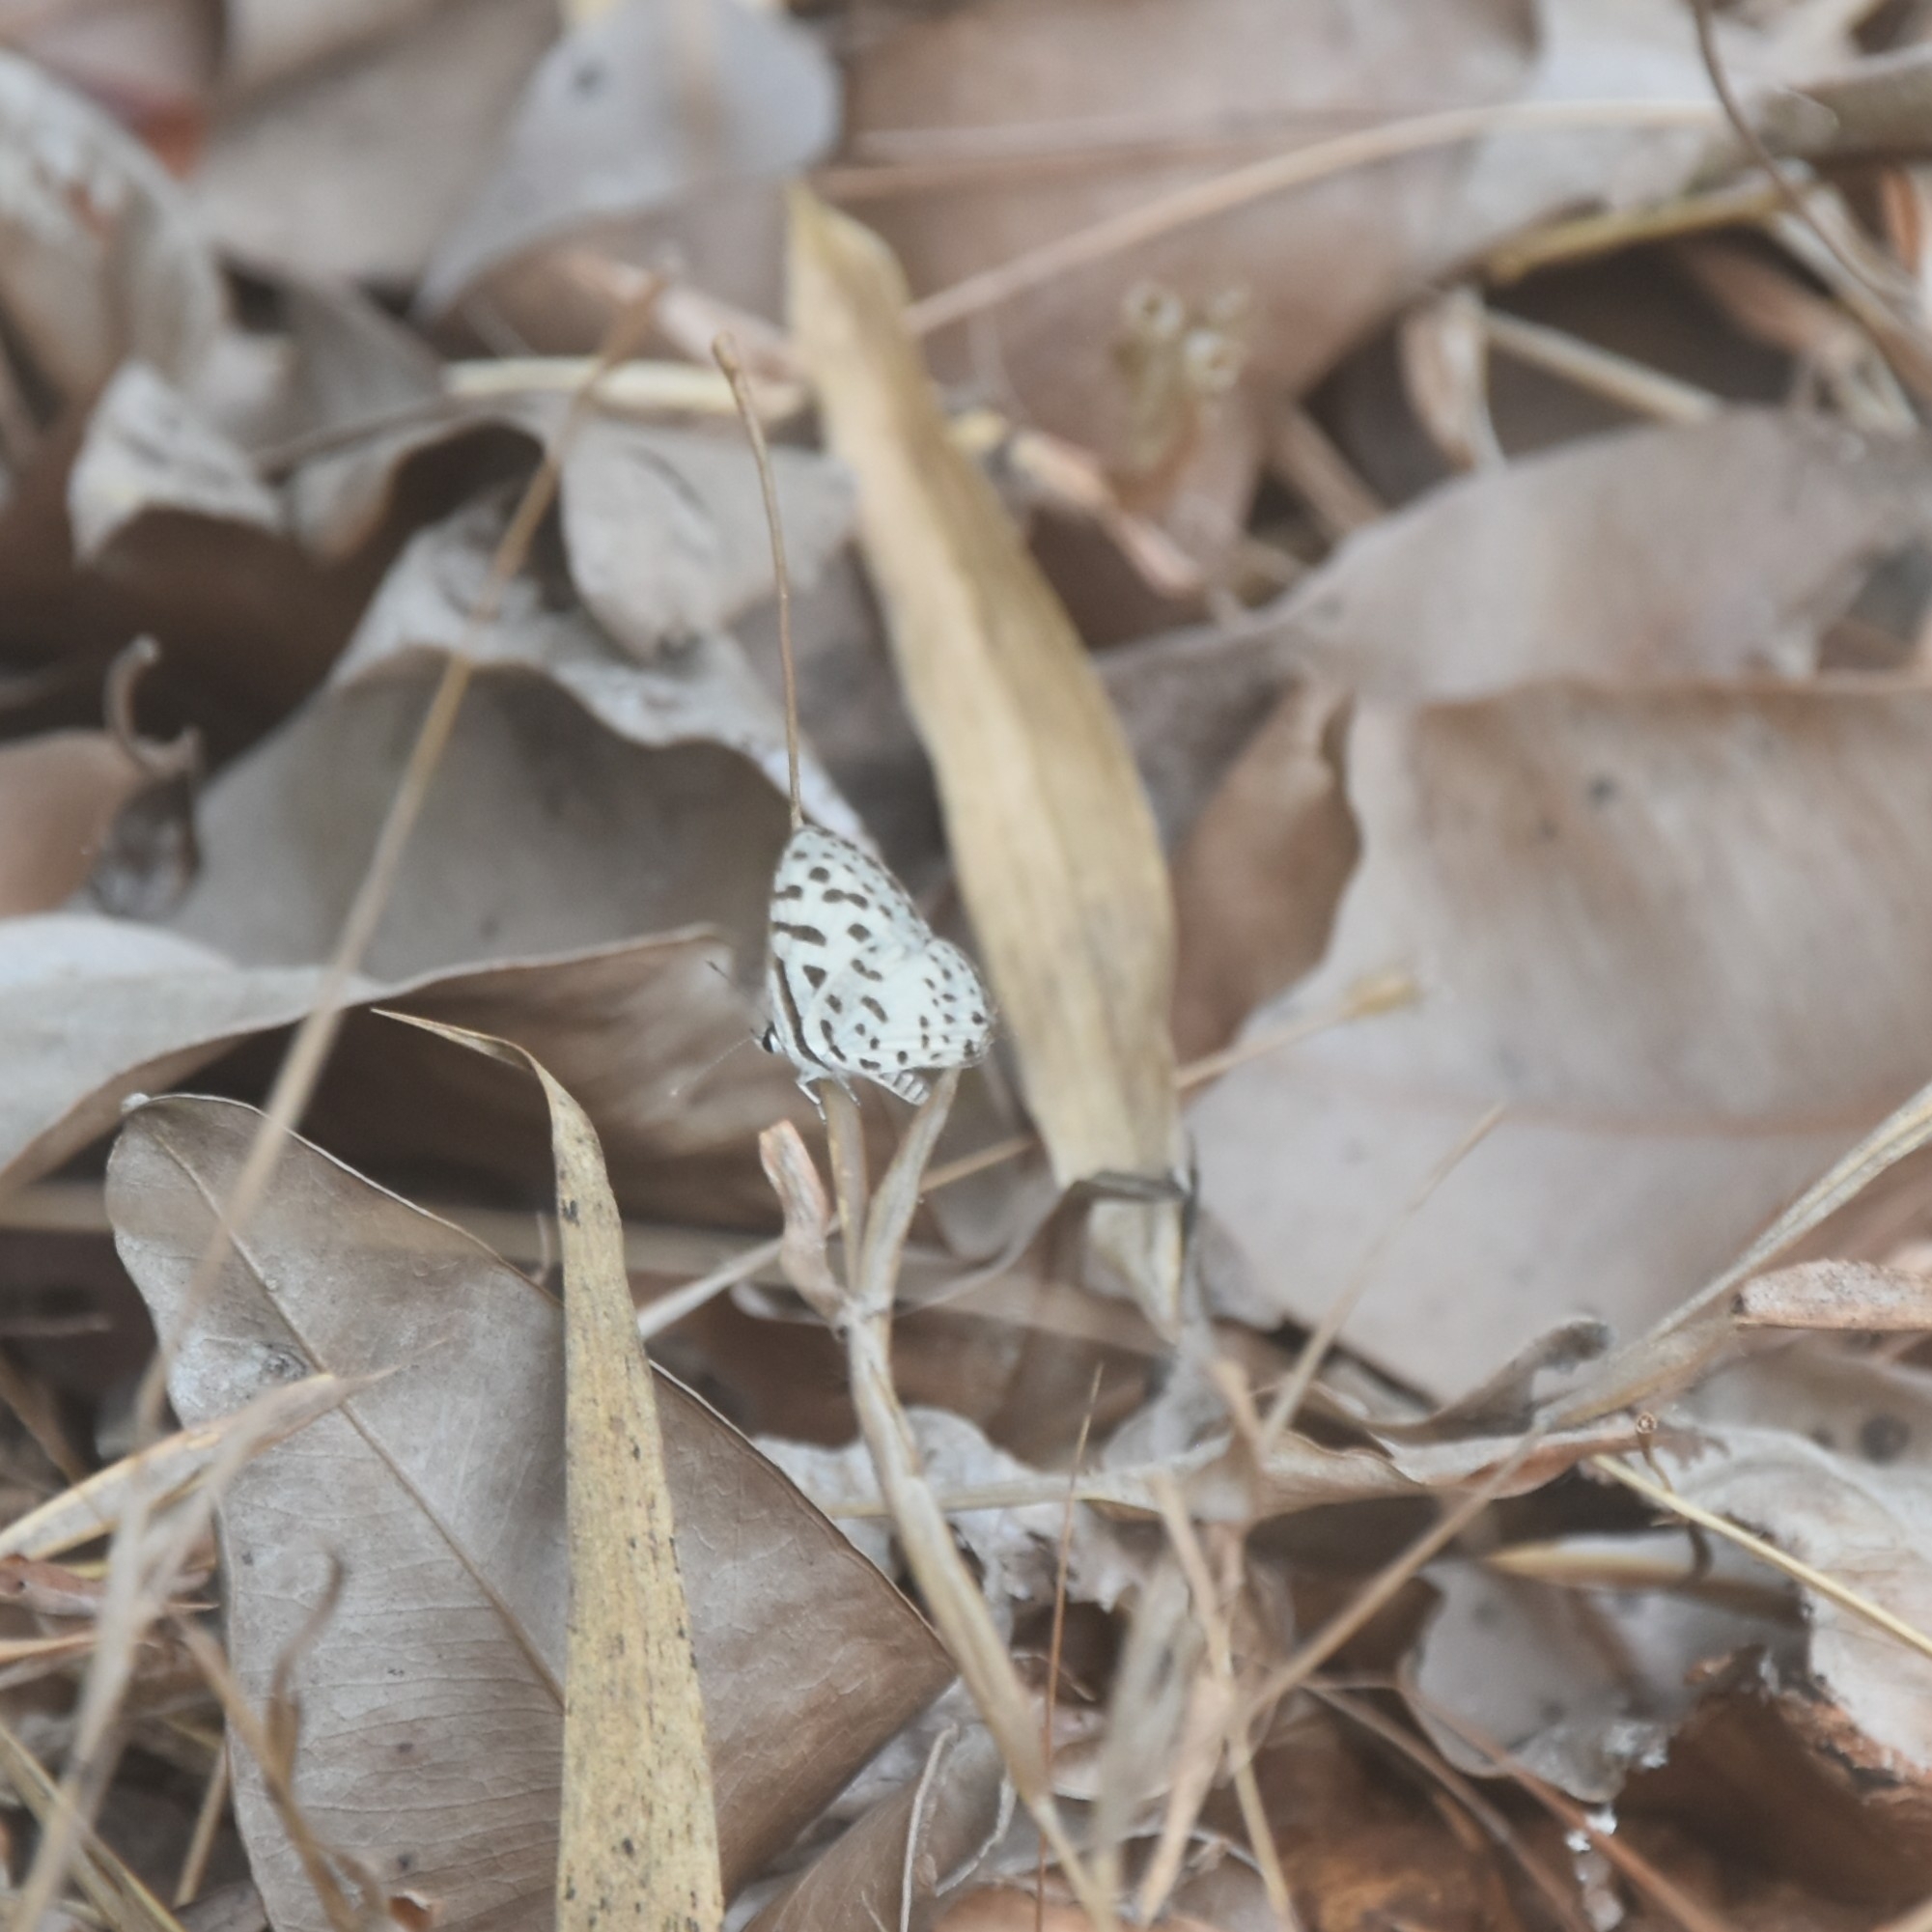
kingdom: Animalia
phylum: Arthropoda
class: Insecta
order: Lepidoptera
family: Lycaenidae
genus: Castalius
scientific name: Castalius rosimon
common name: Common pierrot
